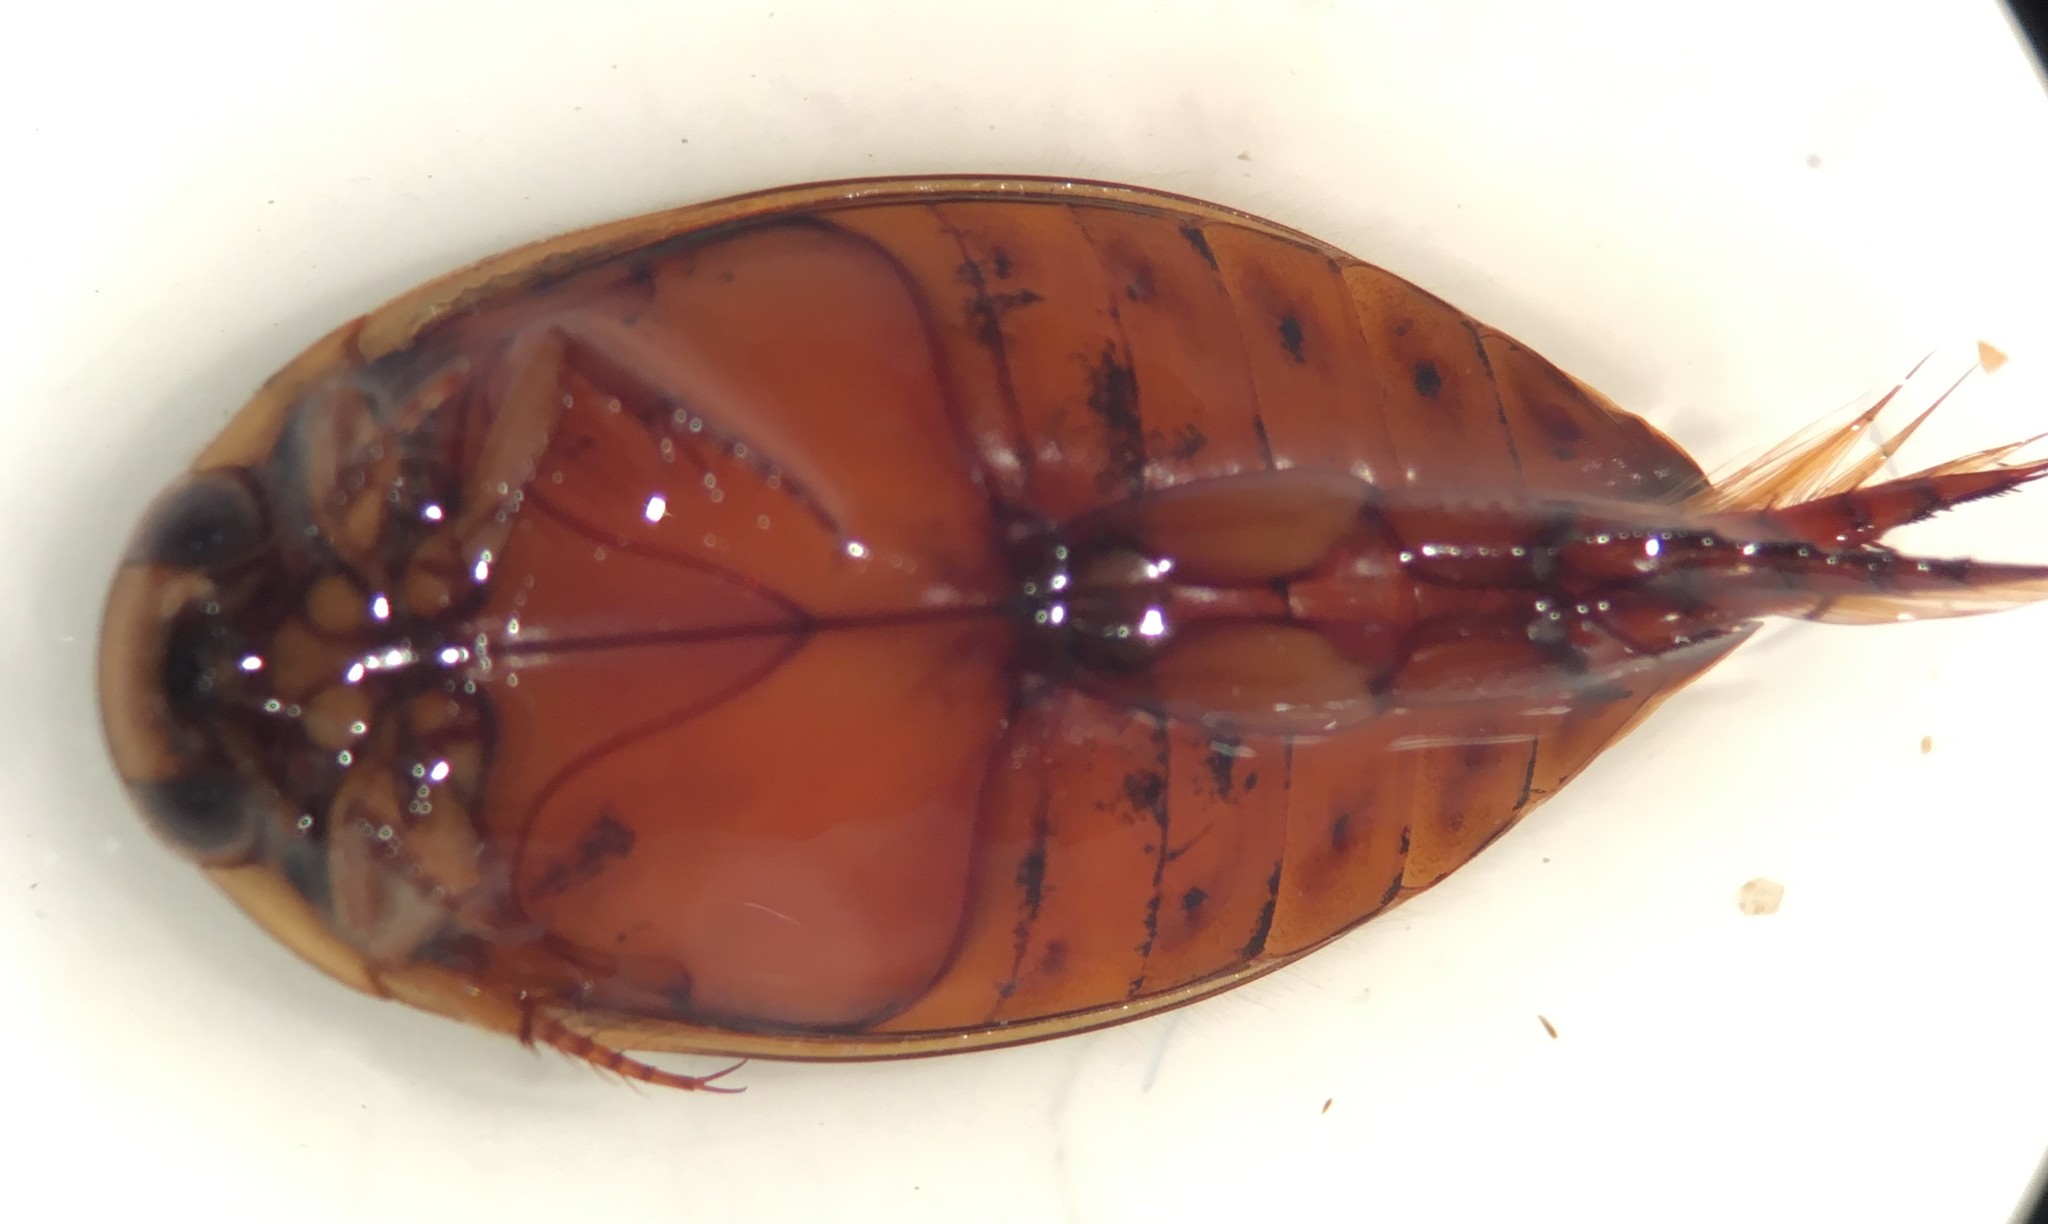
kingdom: Animalia
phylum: Arthropoda
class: Insecta
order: Coleoptera
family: Dytiscidae
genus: Thermonectus
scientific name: Thermonectus nigrofasciatus
